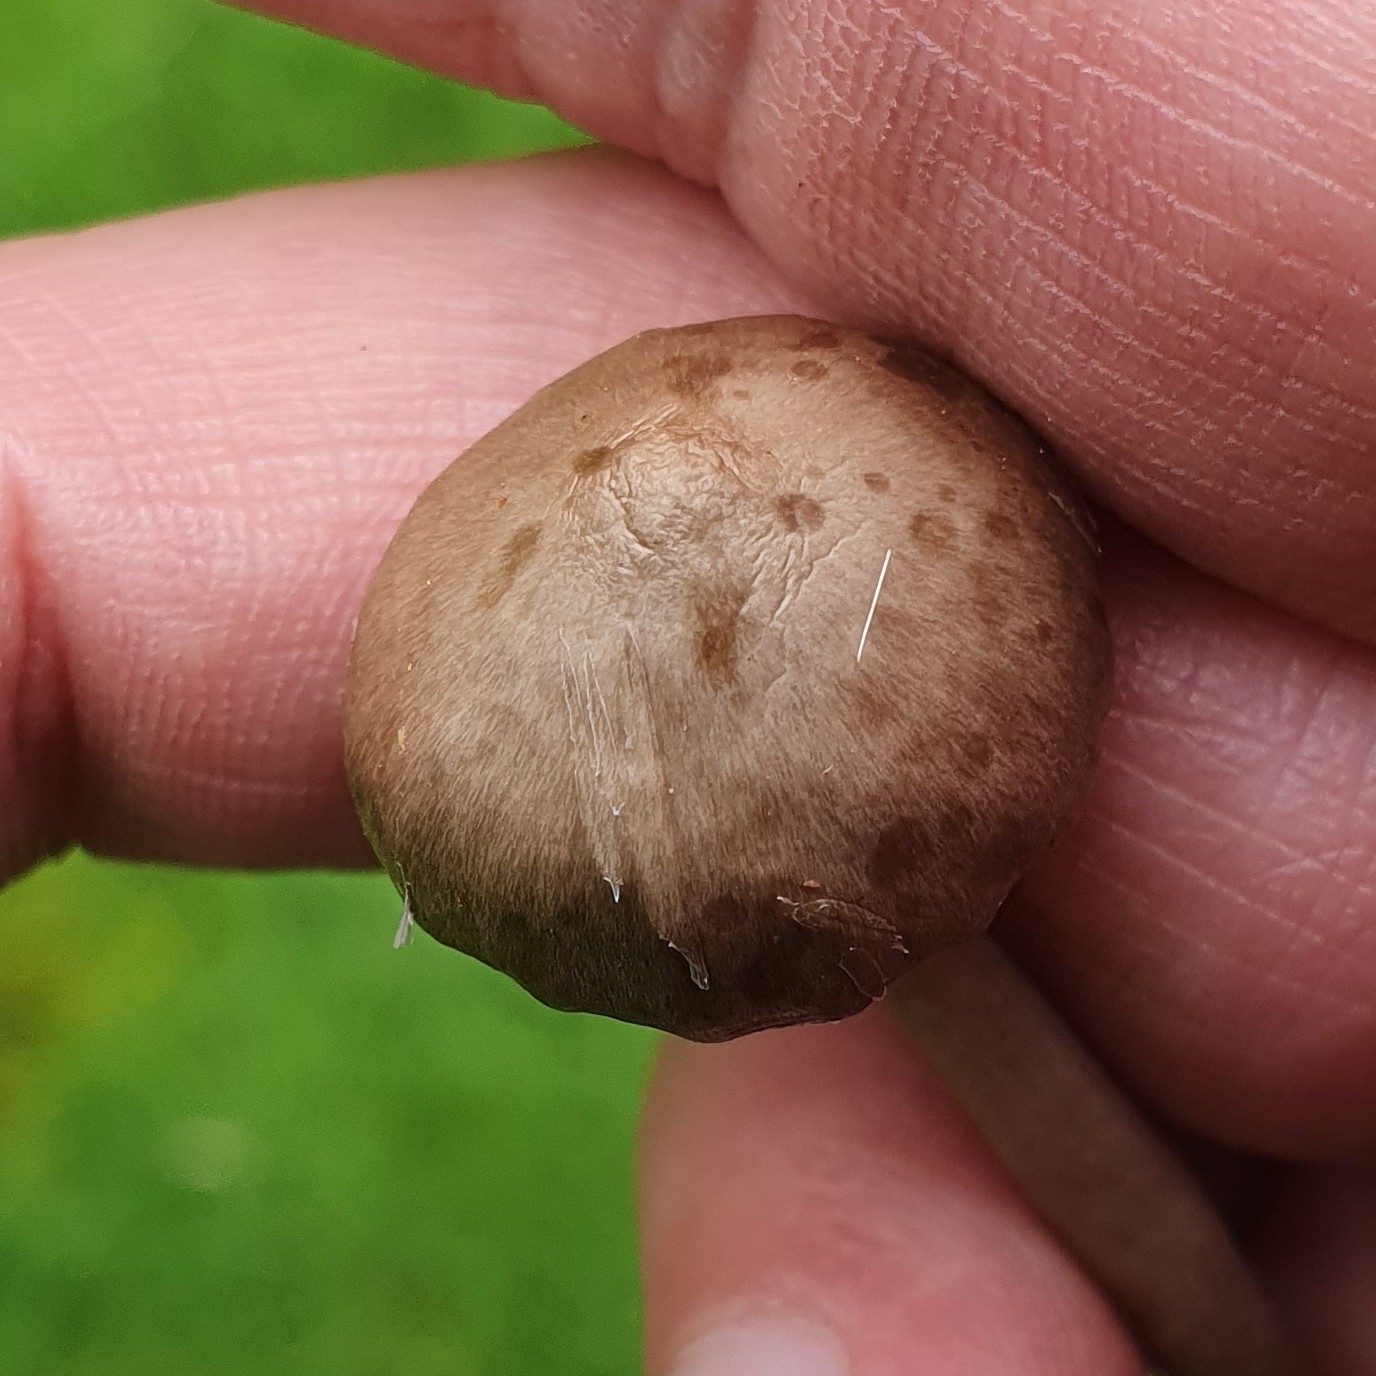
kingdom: Fungi
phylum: Basidiomycota
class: Agaricomycetes
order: Agaricales
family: Hygrophoraceae
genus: Gliophorus
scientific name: Gliophorus irrigatus
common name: Slimy waxcap
